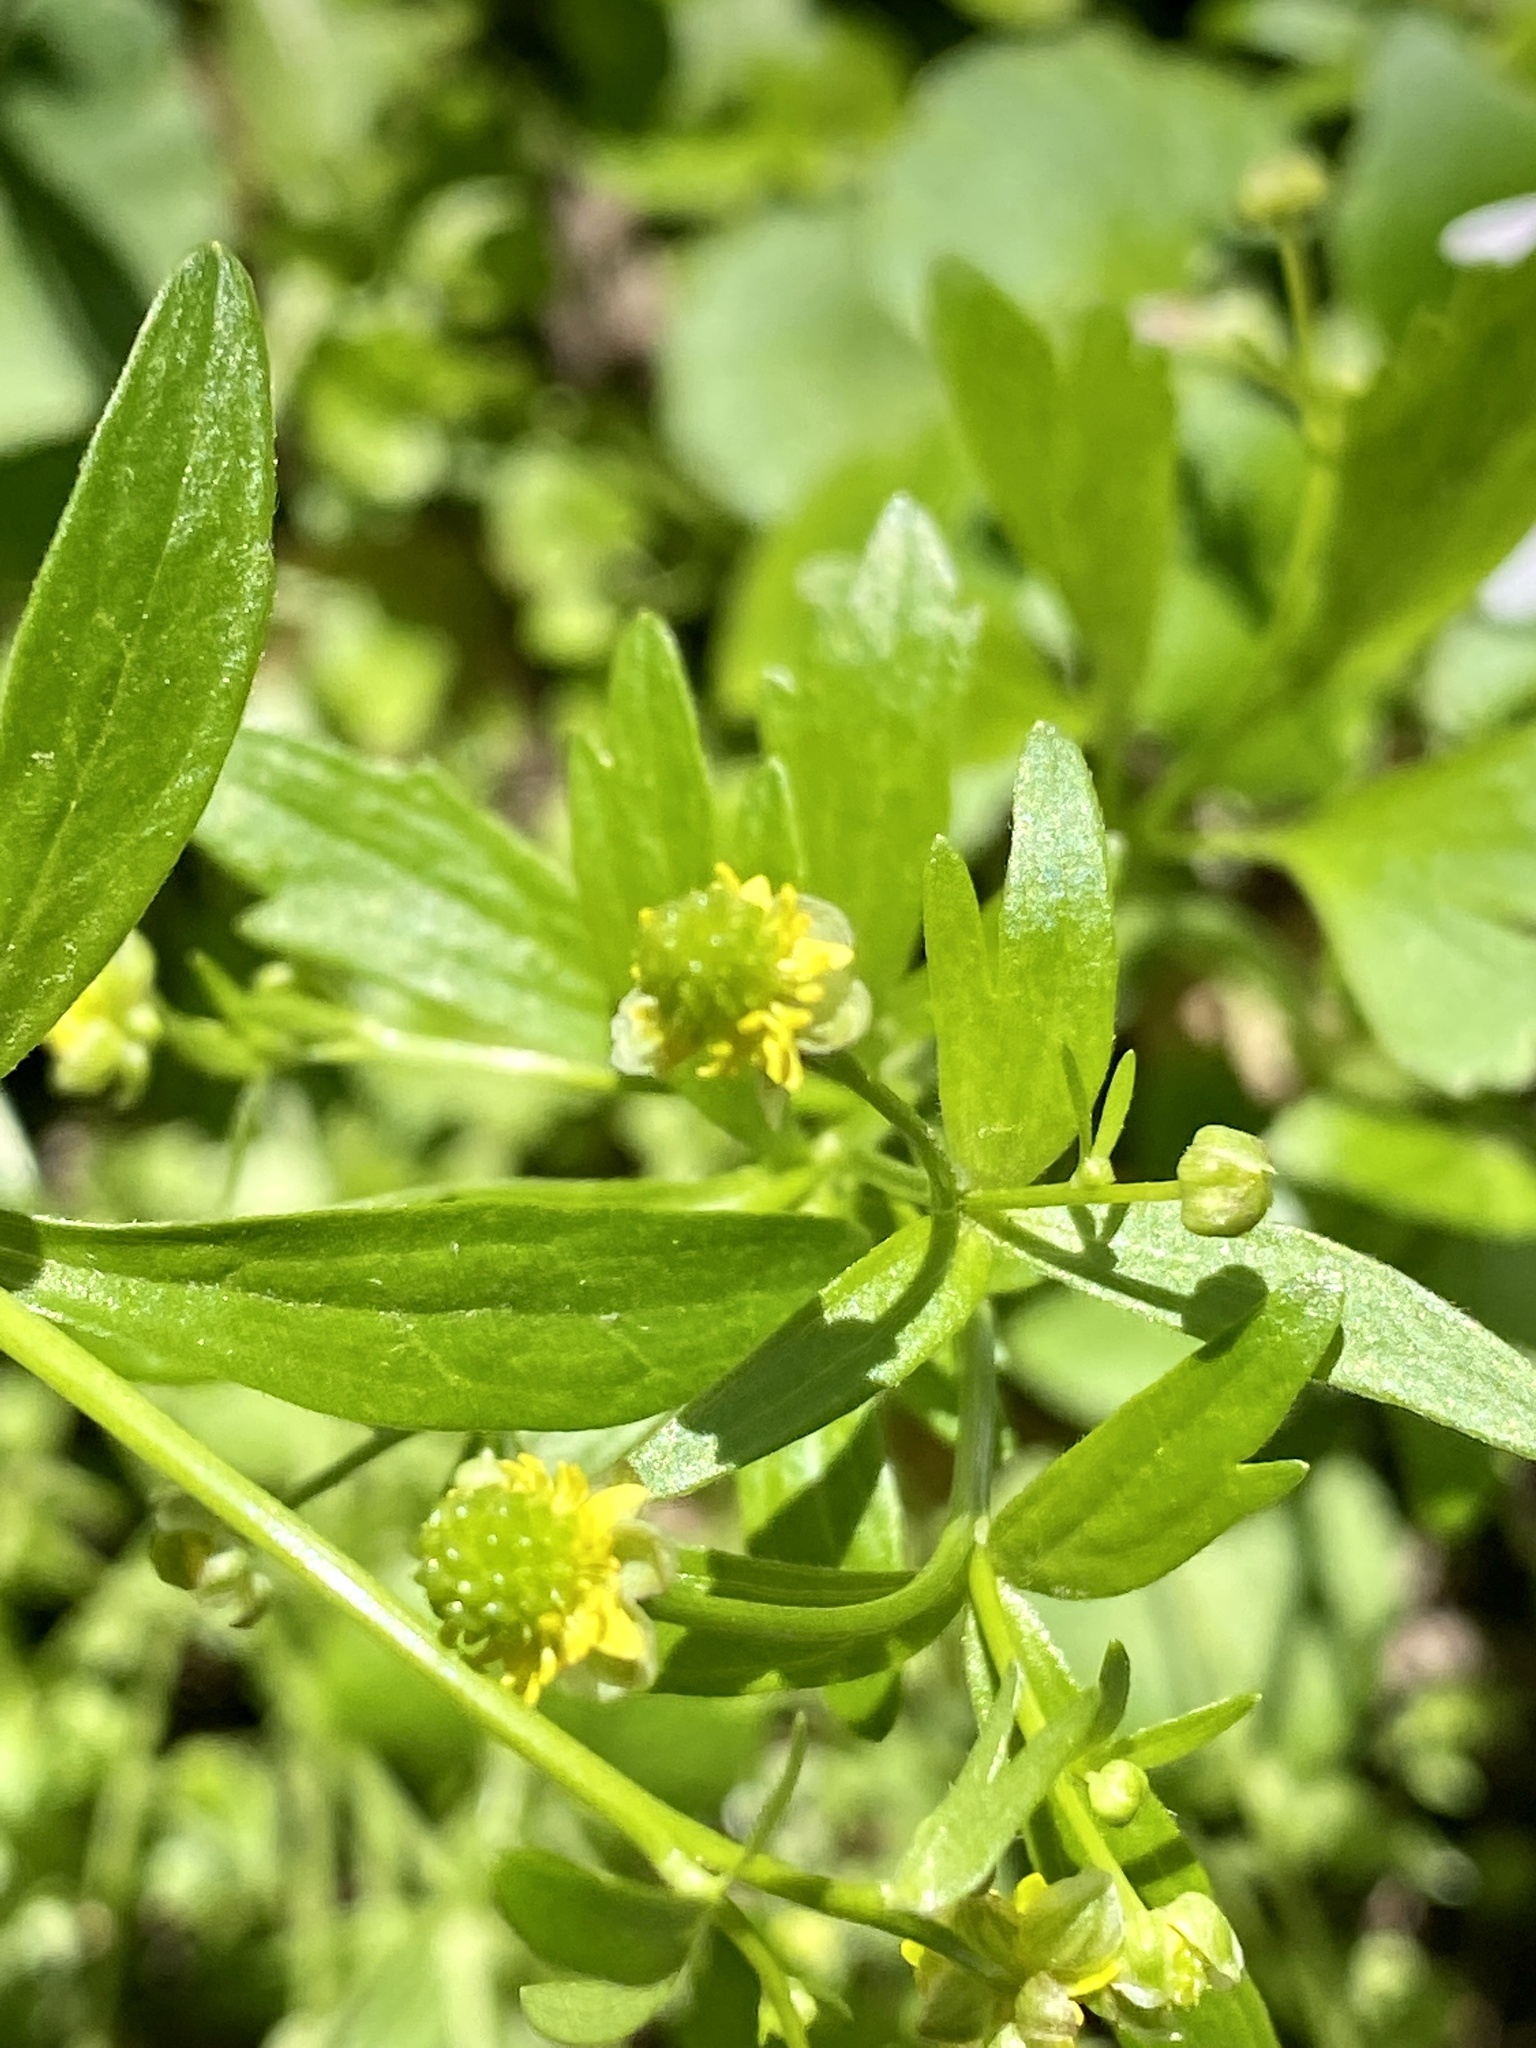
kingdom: Plantae
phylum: Tracheophyta
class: Magnoliopsida
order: Ranunculales
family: Ranunculaceae
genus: Ranunculus
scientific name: Ranunculus abortivus
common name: Early wood buttercup
